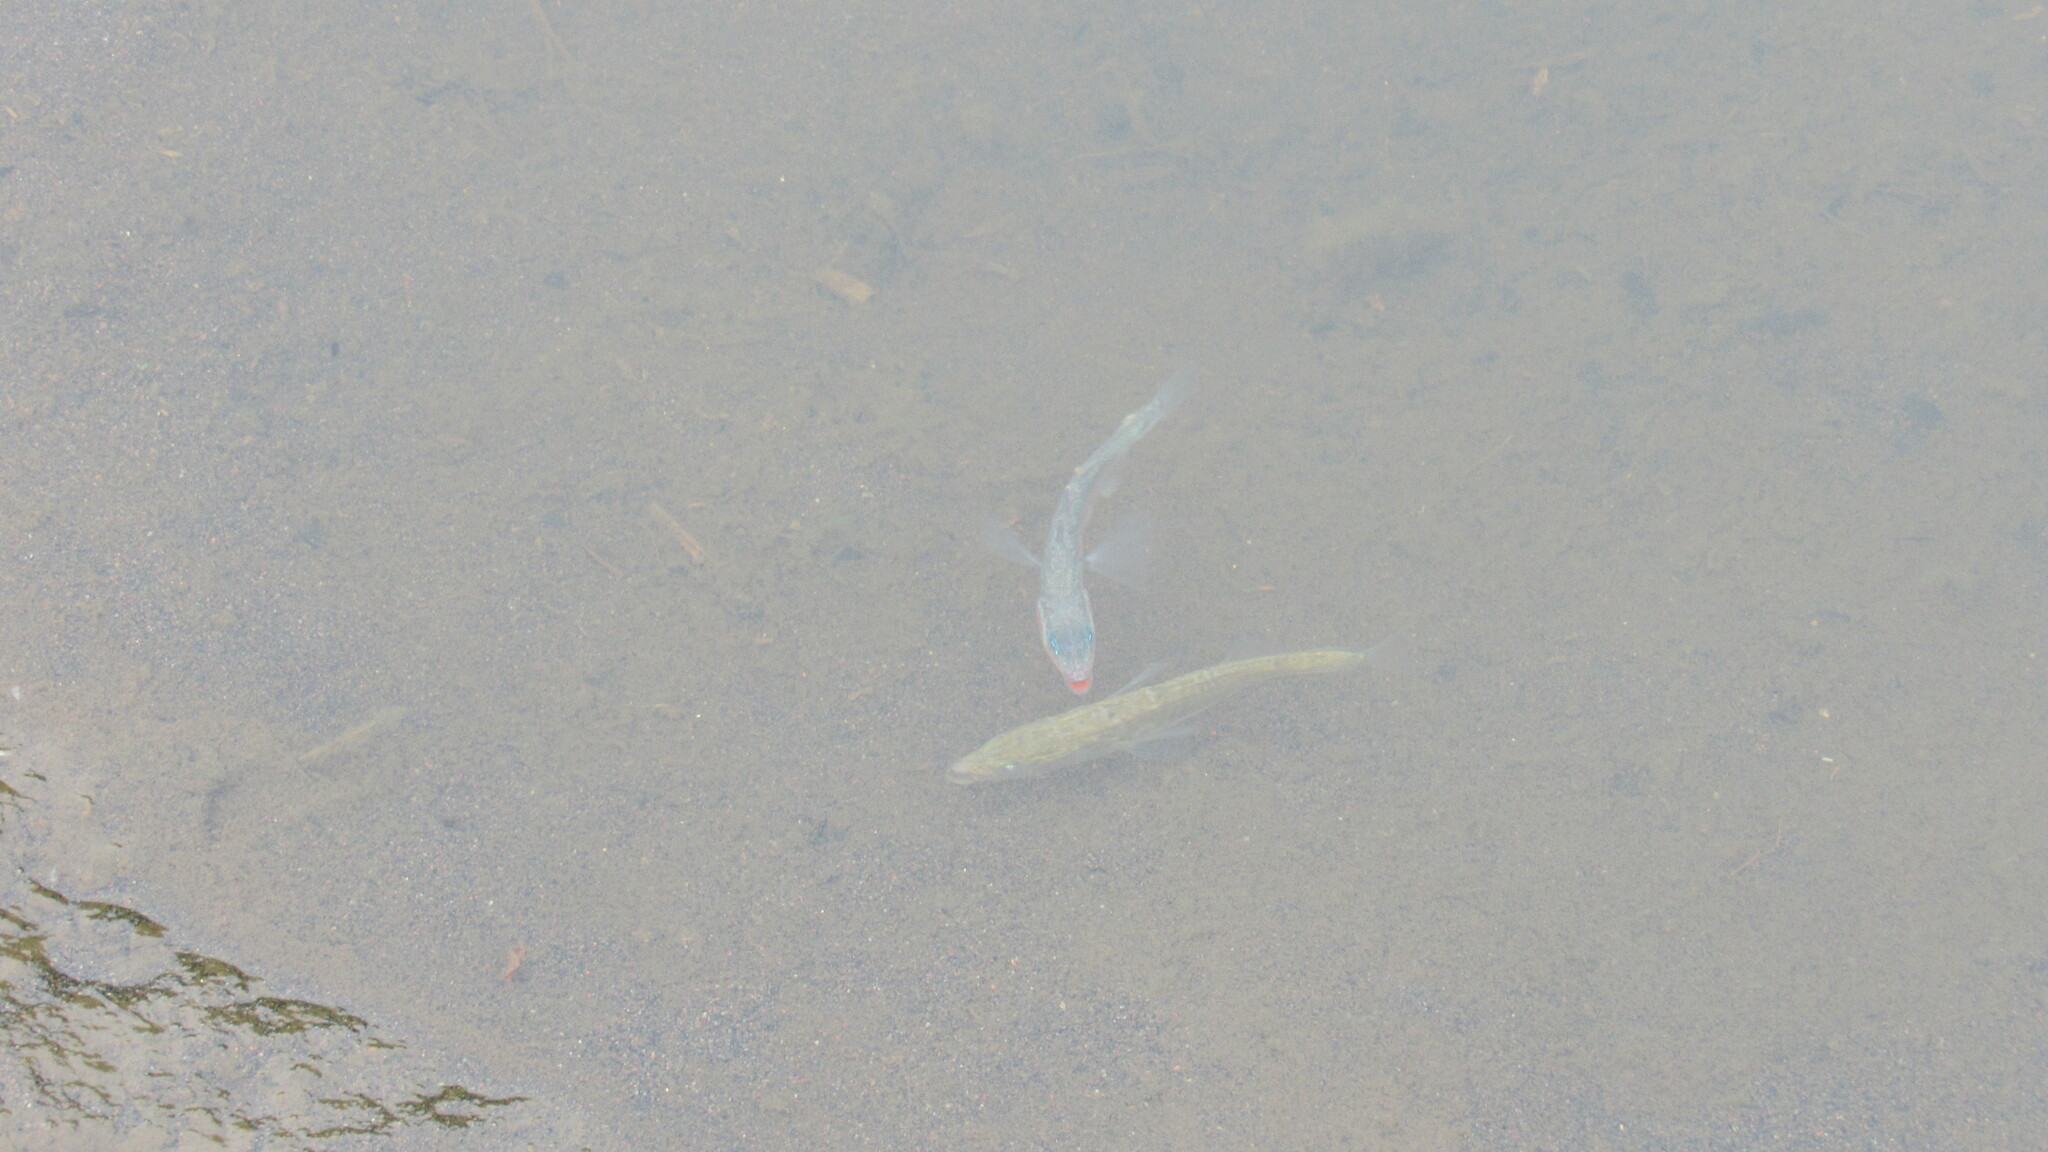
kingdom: Animalia
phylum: Chordata
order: Gasterosteiformes
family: Gasterosteidae
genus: Gasterosteus
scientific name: Gasterosteus aculeatus
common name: Three-spined stickleback
